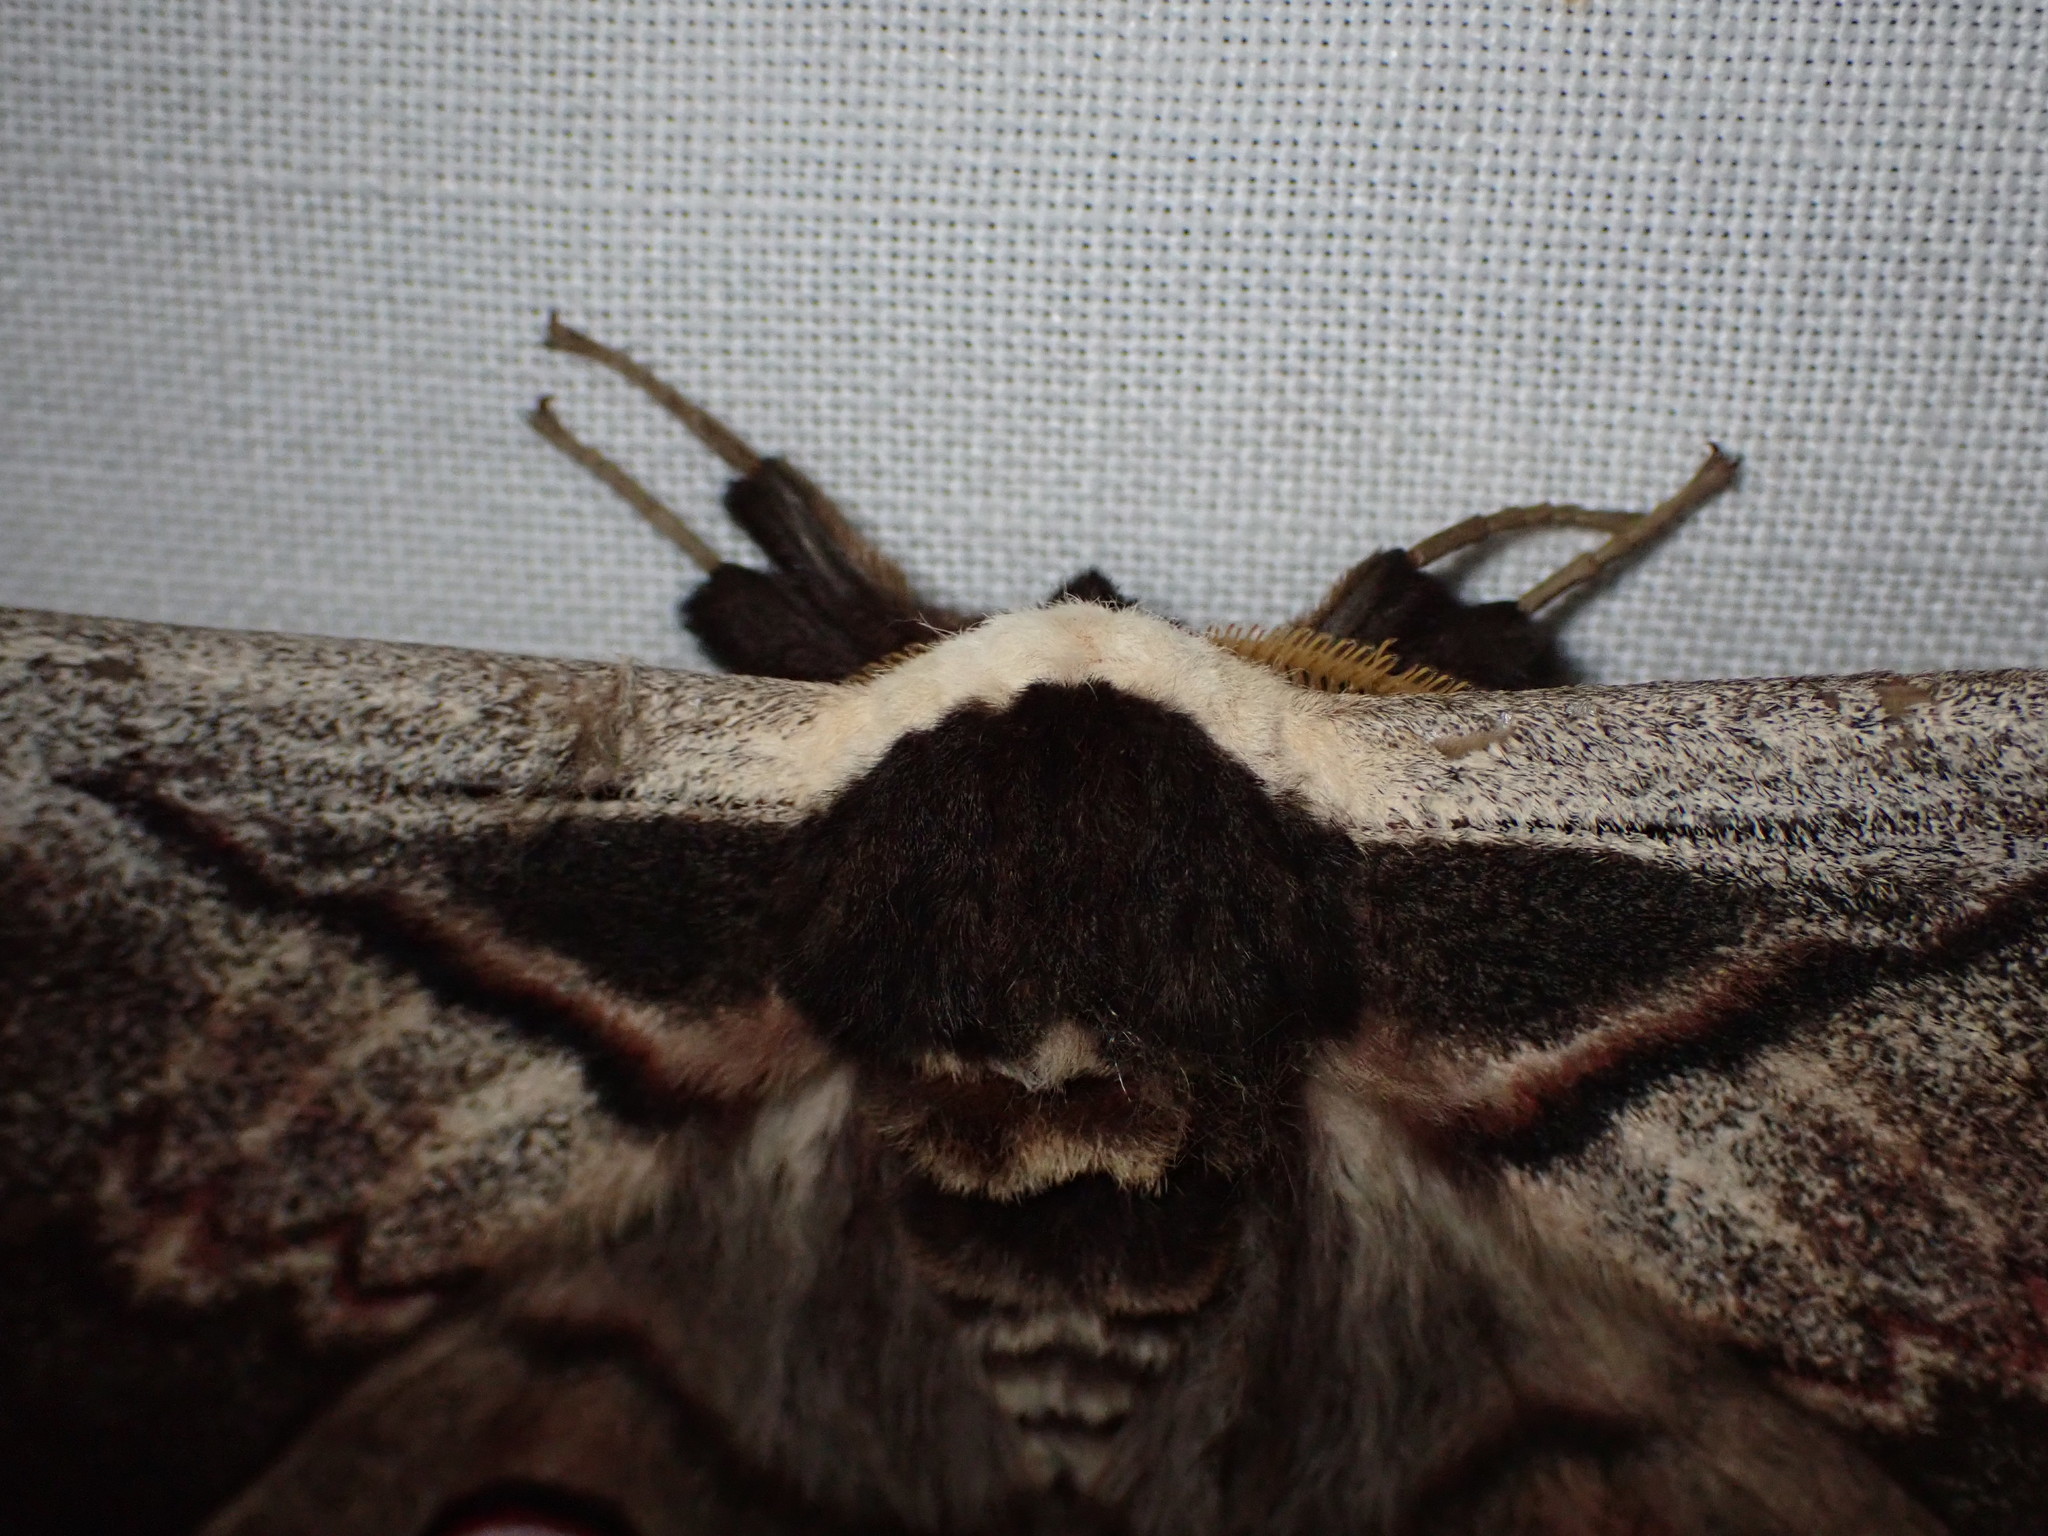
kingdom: Animalia
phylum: Arthropoda
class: Insecta
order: Lepidoptera
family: Saturniidae
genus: Saturnia
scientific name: Saturnia pyri
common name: Great peacock moth
